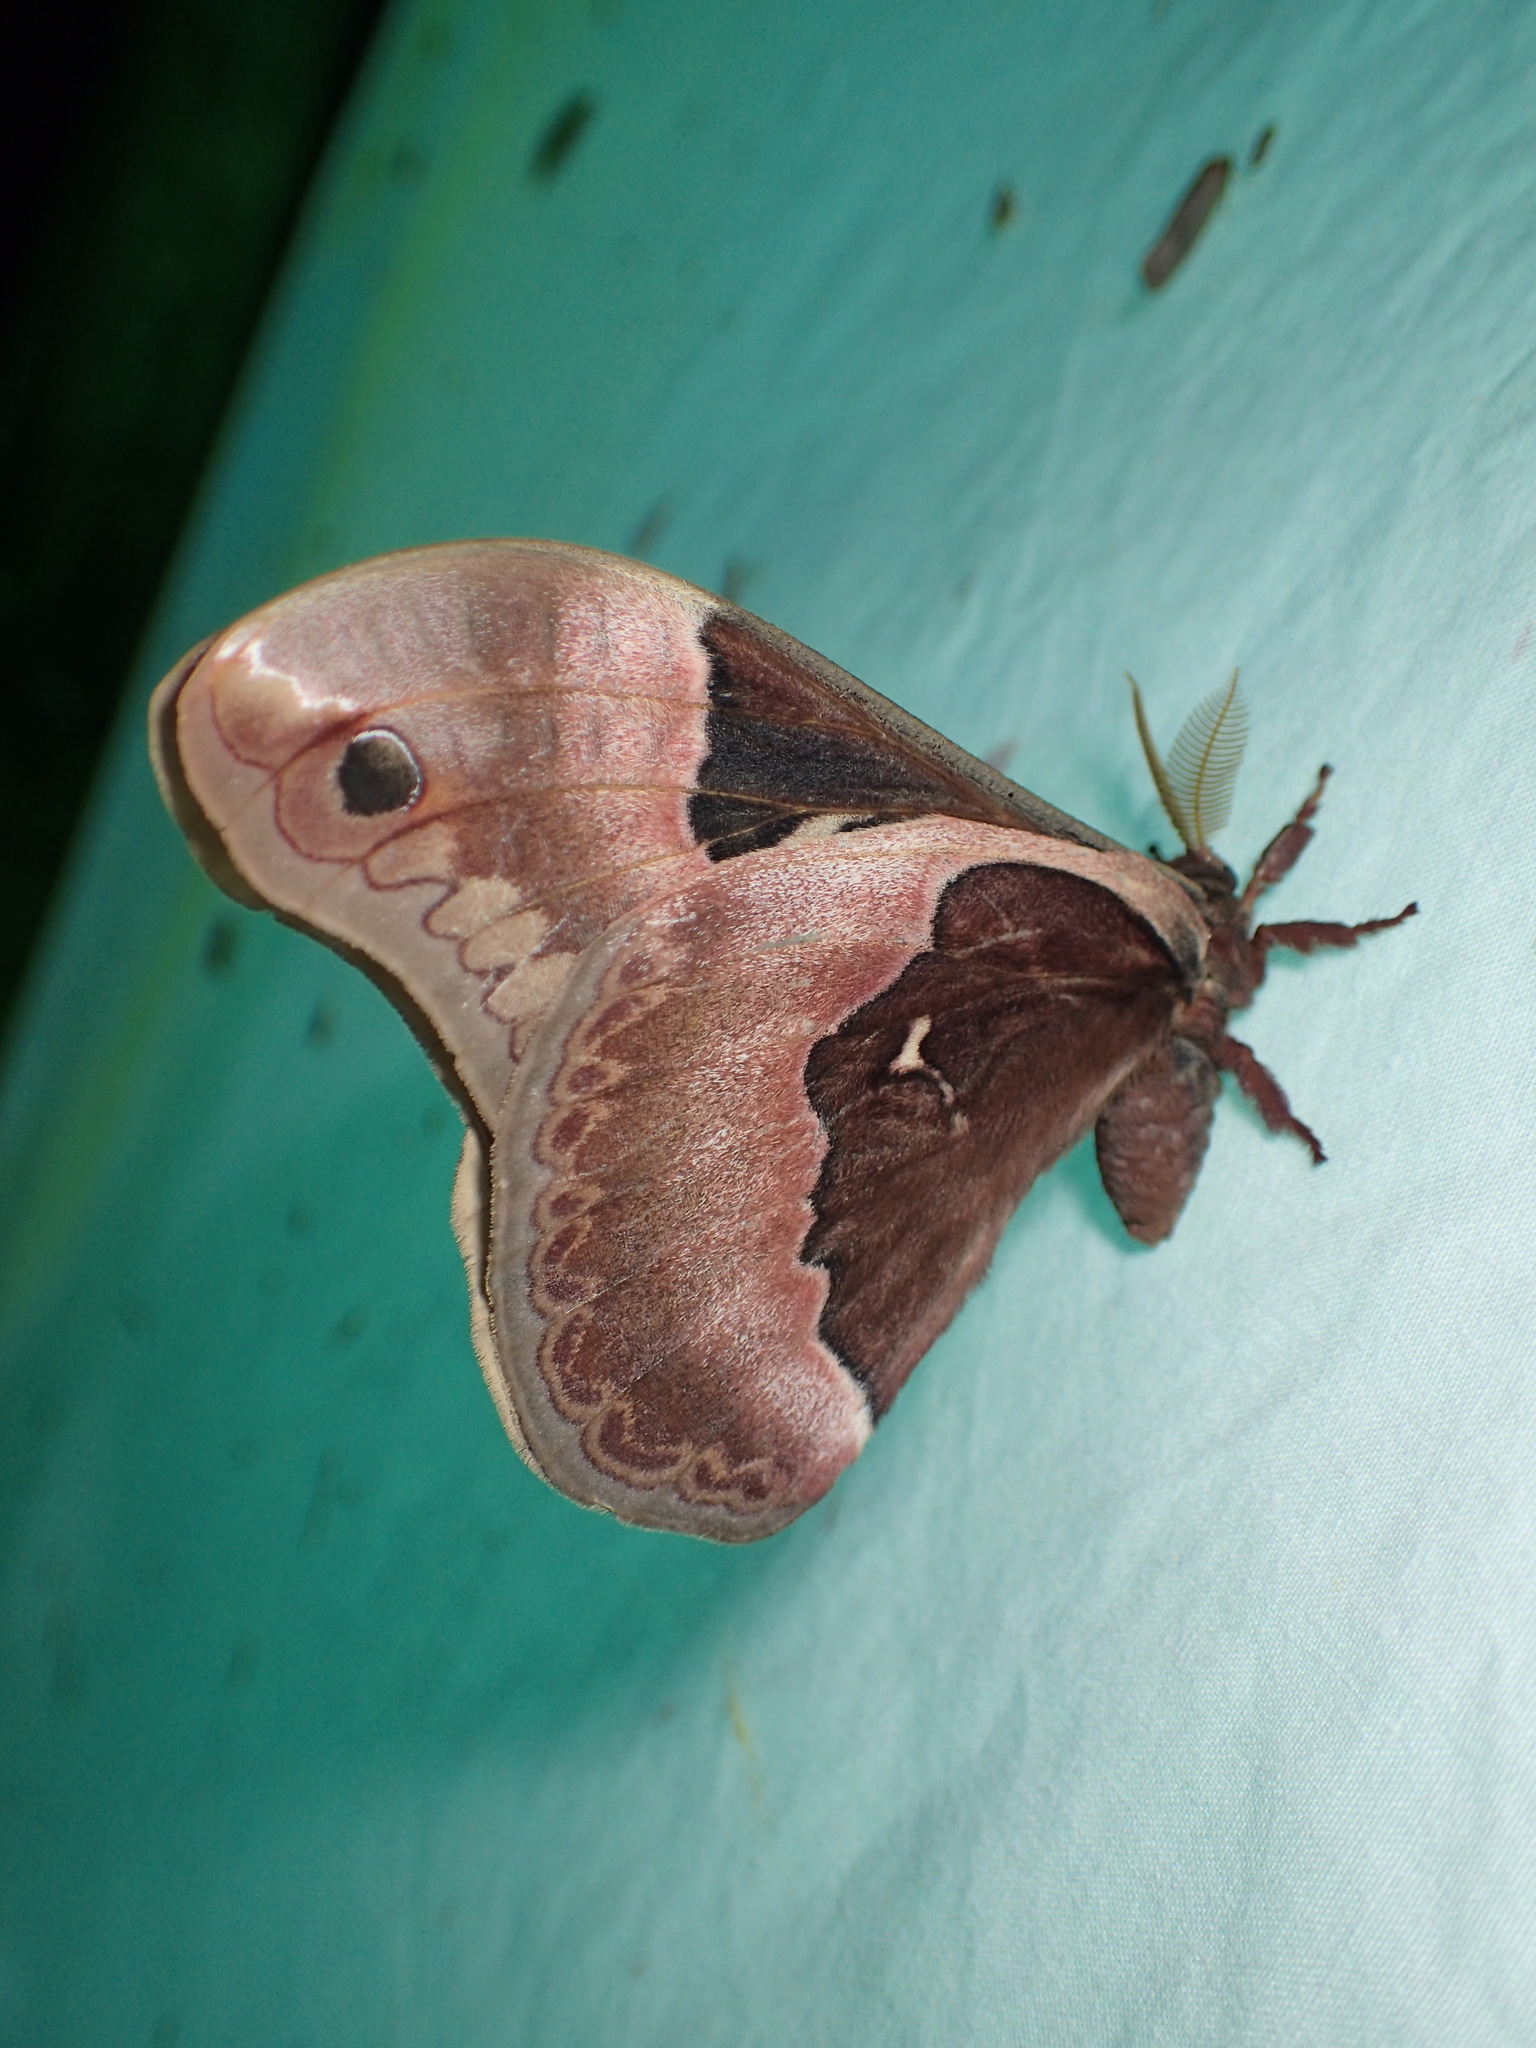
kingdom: Animalia
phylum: Arthropoda
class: Insecta
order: Lepidoptera
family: Saturniidae
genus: Callosamia
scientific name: Callosamia angulifera
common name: Tulip tree silkmoth
